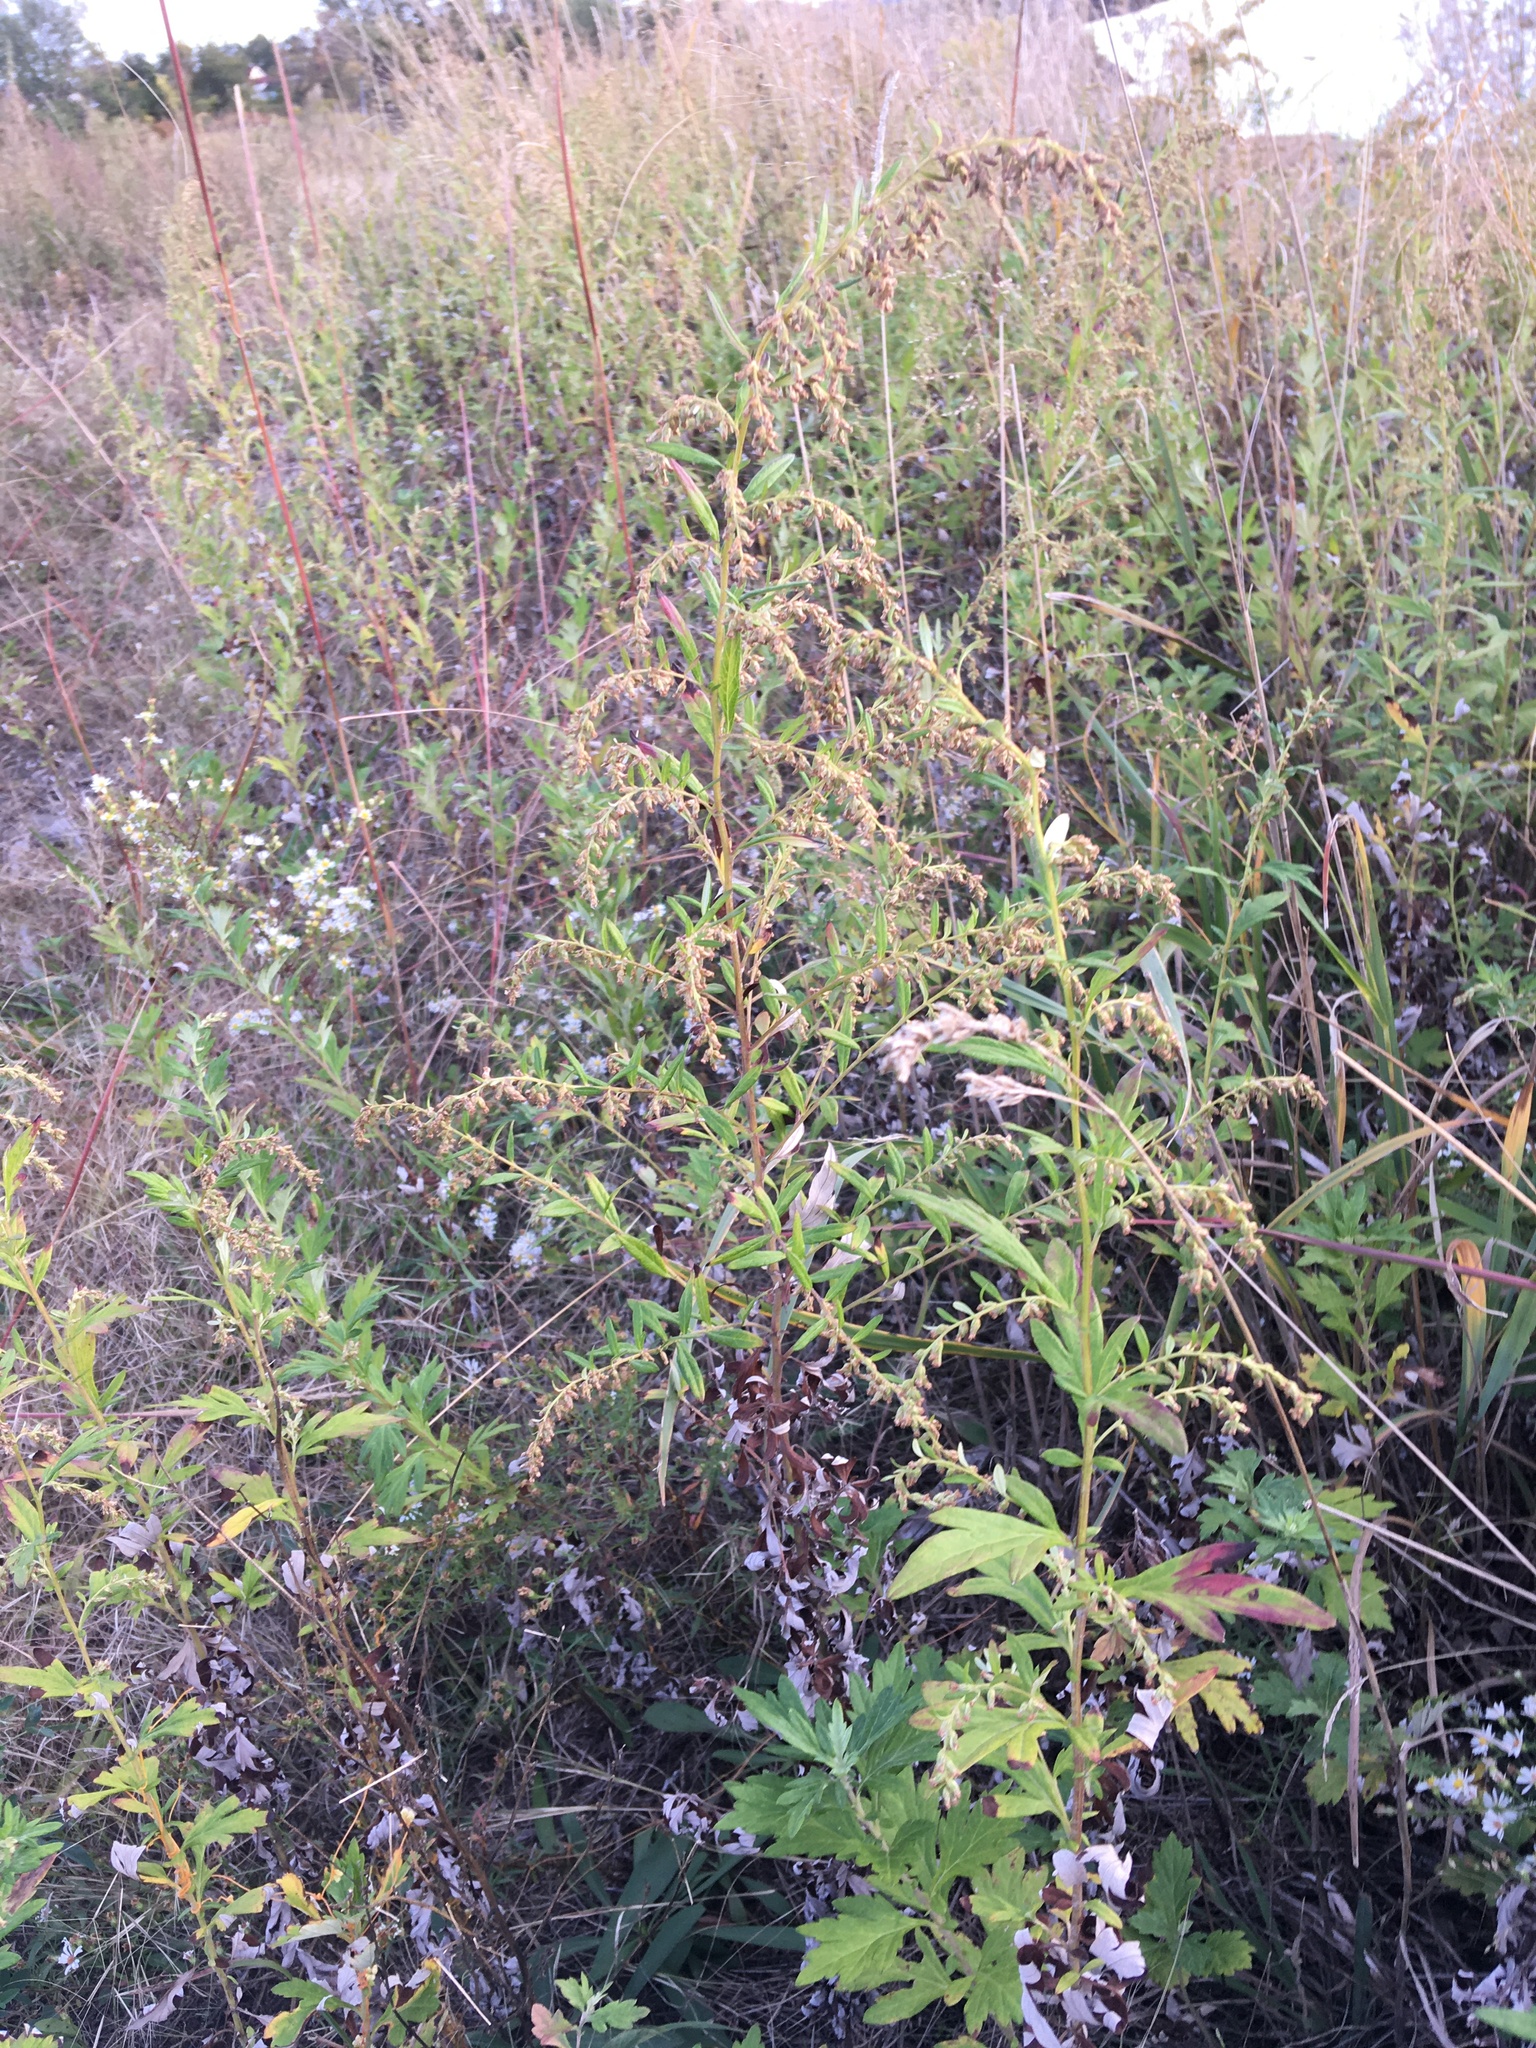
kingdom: Plantae
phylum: Tracheophyta
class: Magnoliopsida
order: Asterales
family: Asteraceae
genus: Artemisia
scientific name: Artemisia vulgaris
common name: Mugwort
